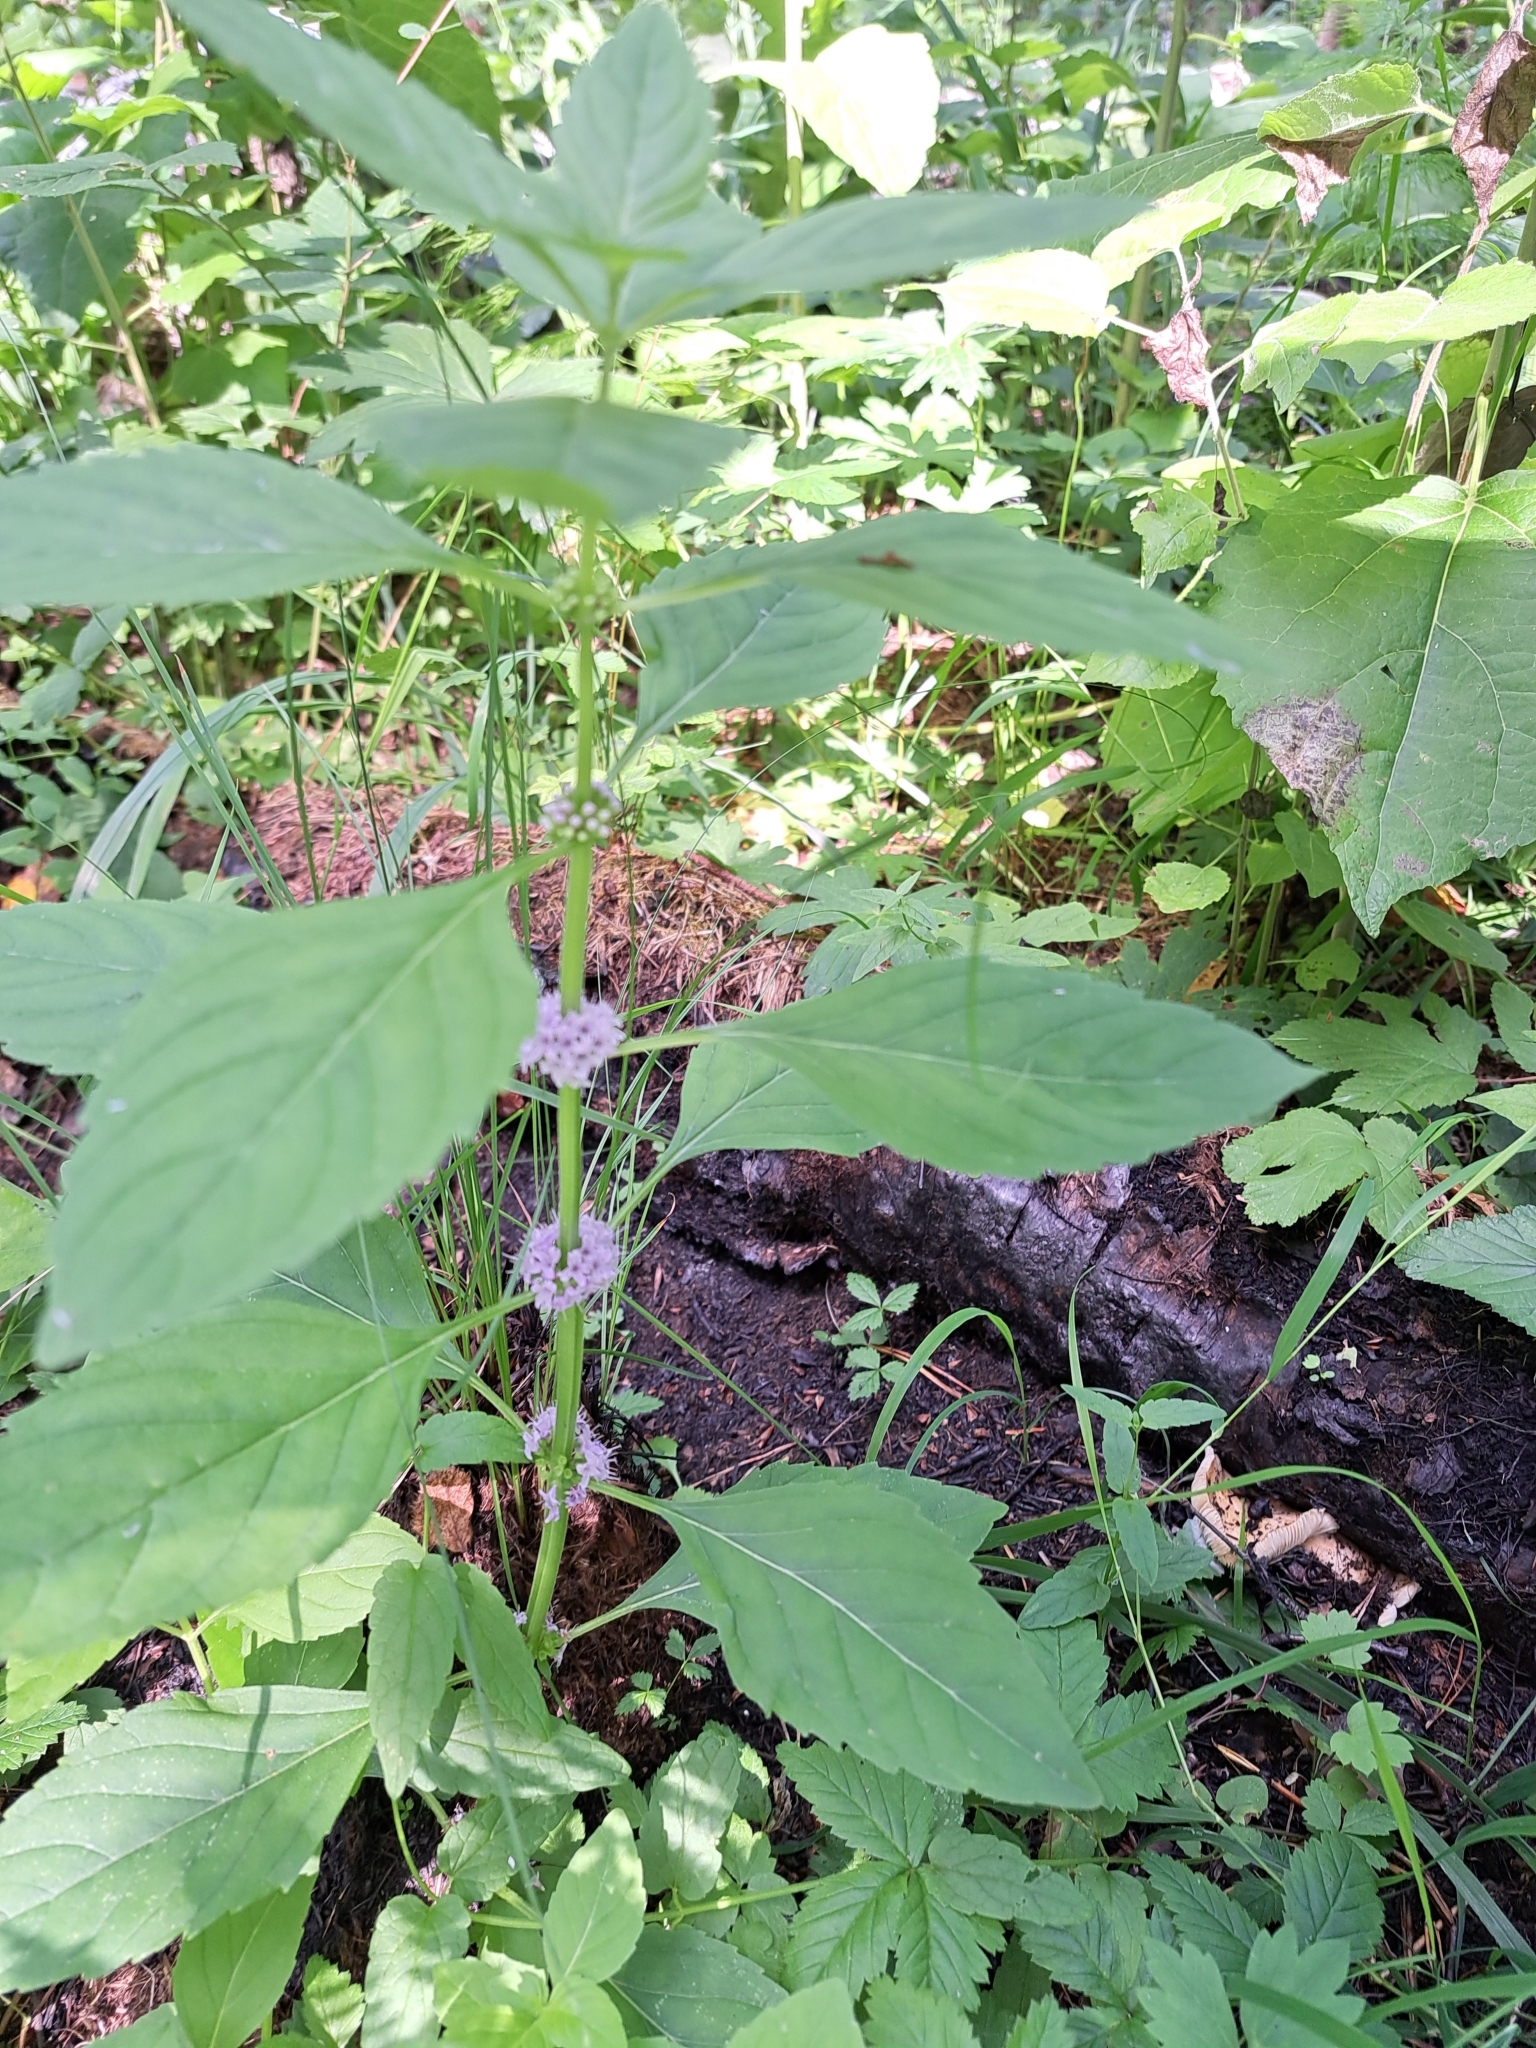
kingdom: Plantae
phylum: Tracheophyta
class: Magnoliopsida
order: Lamiales
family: Lamiaceae
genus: Mentha
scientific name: Mentha arvensis
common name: Corn mint
